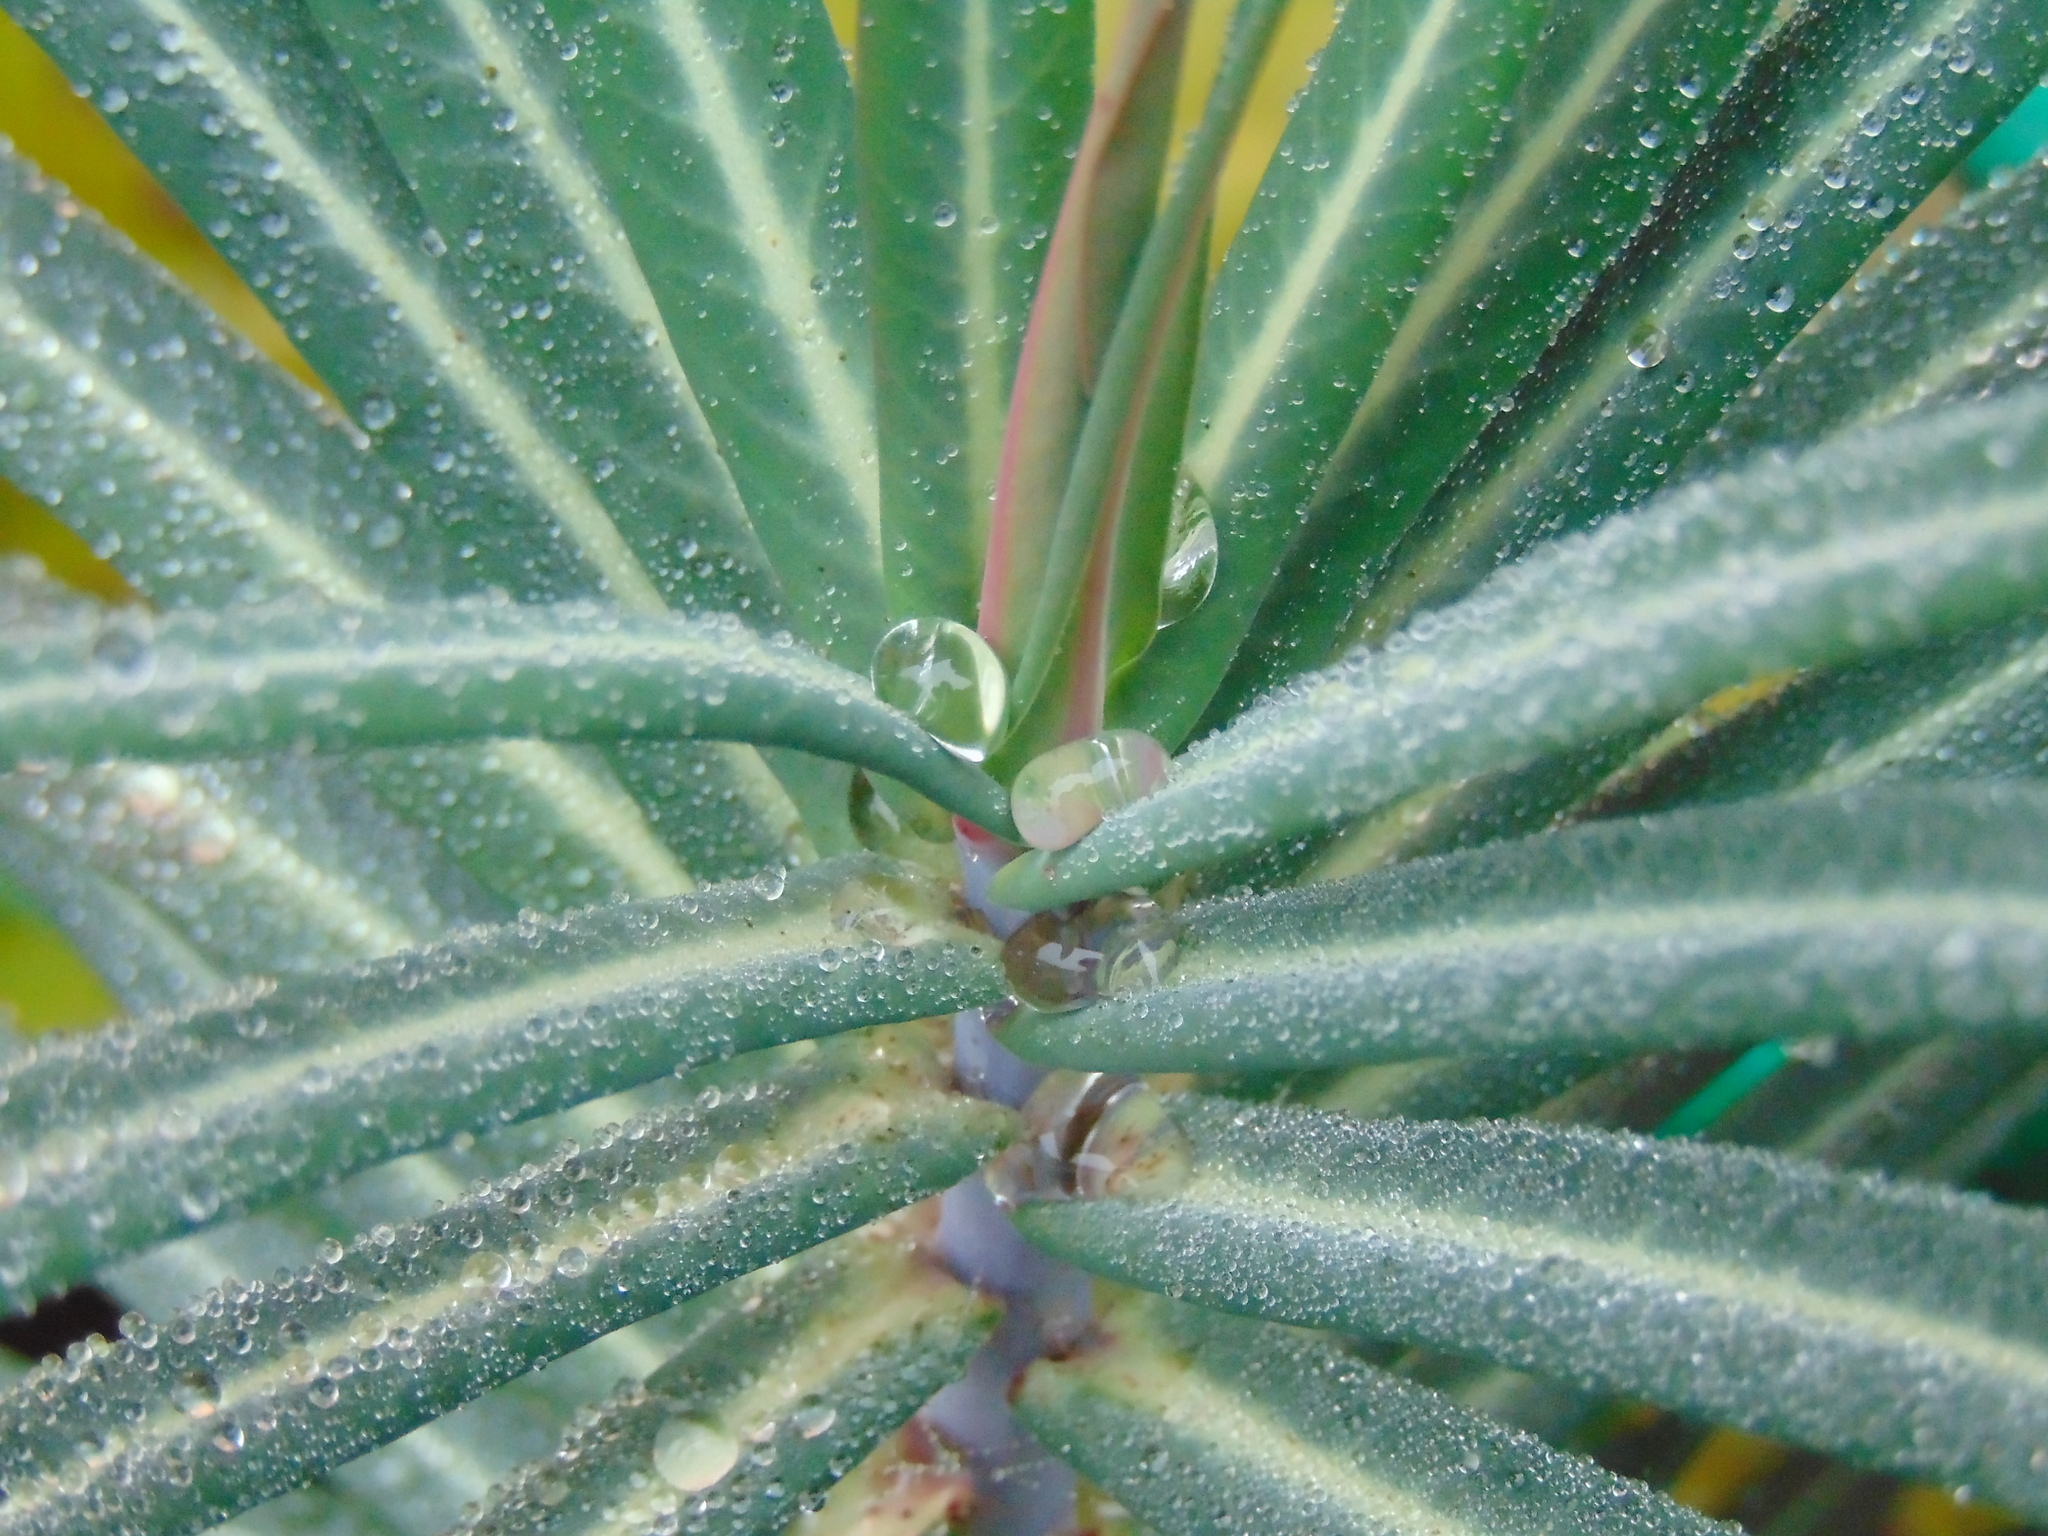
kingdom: Plantae
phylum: Tracheophyta
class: Magnoliopsida
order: Malpighiales
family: Euphorbiaceae
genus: Euphorbia
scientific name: Euphorbia lathyris
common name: Caper spurge
